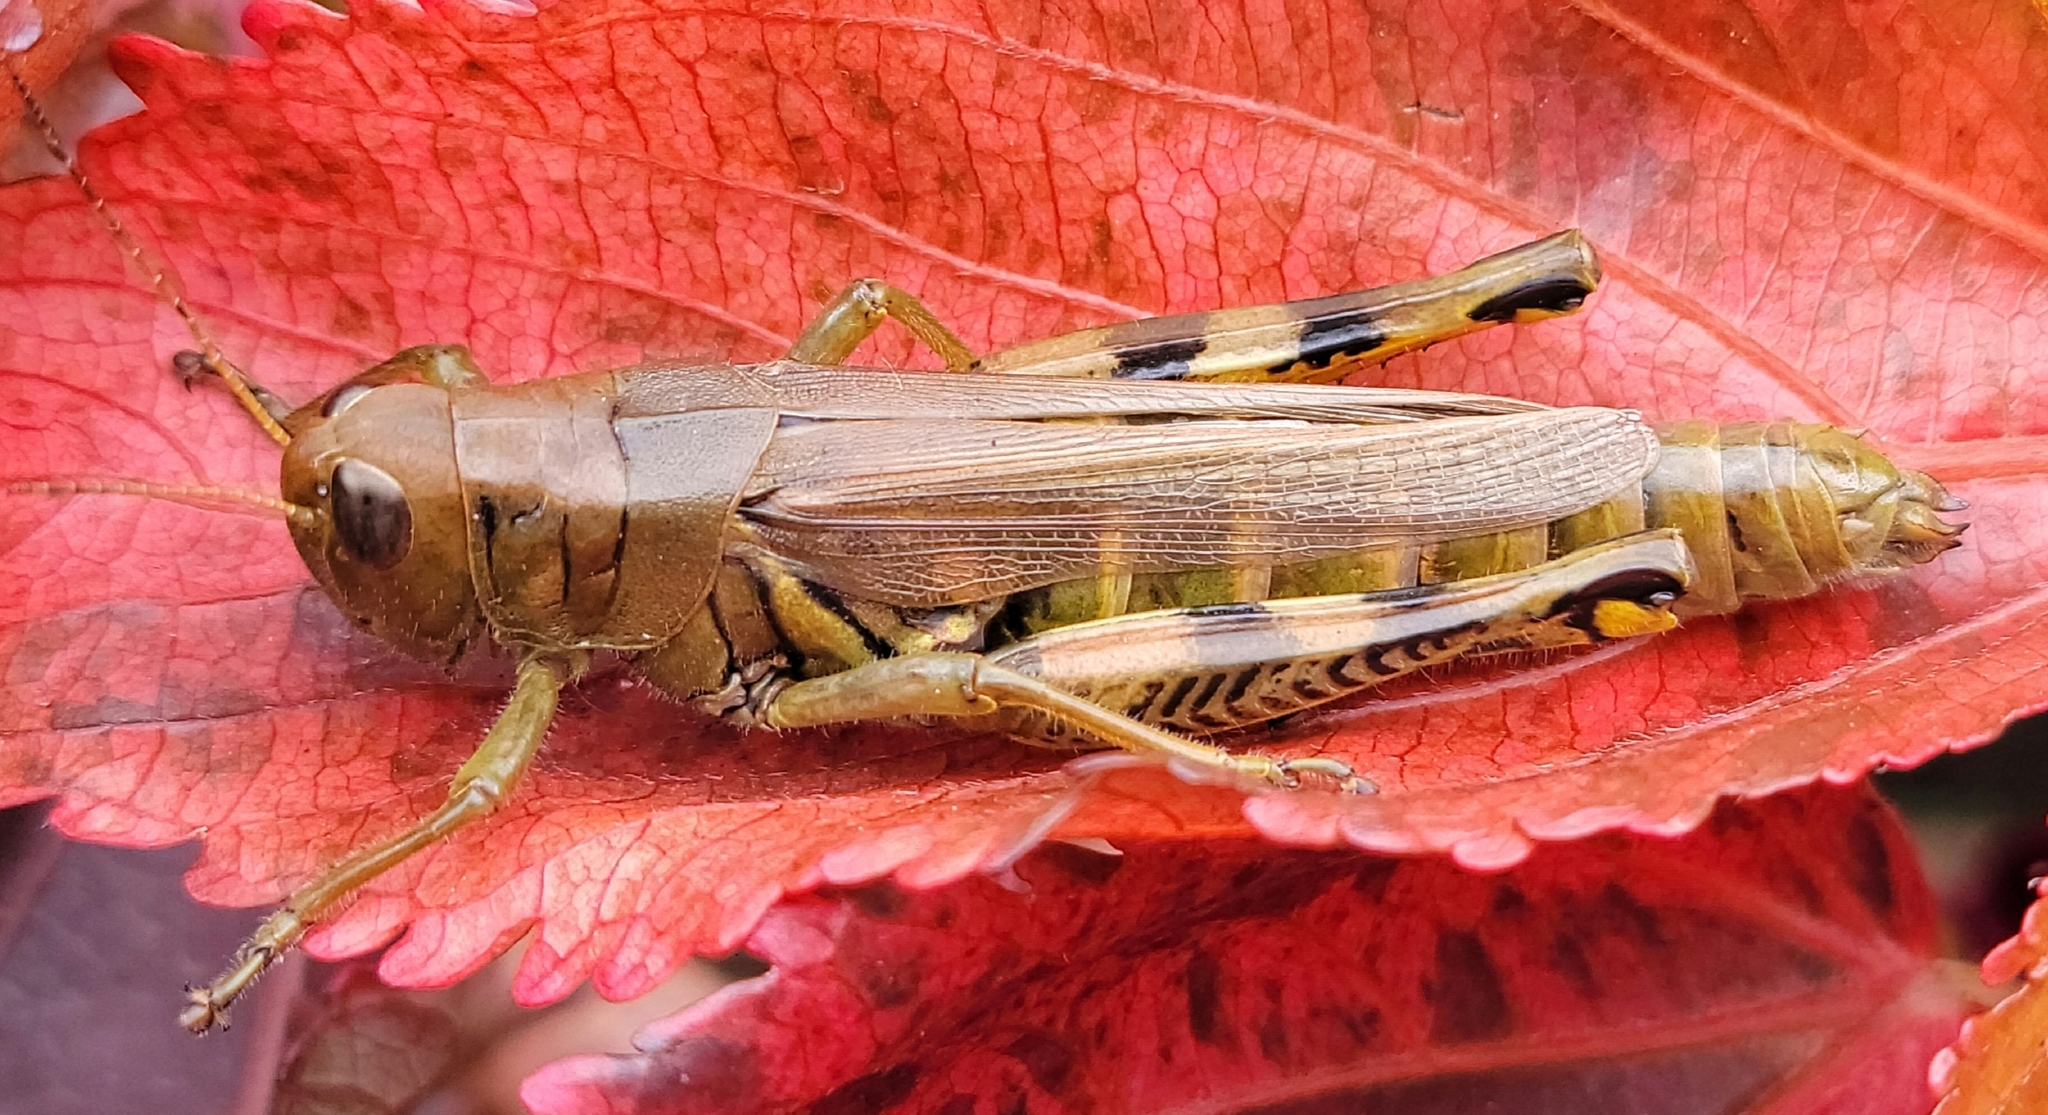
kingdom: Animalia
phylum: Arthropoda
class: Insecta
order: Orthoptera
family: Acrididae
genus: Melanoplus
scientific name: Melanoplus differentialis
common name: Differential grasshopper
